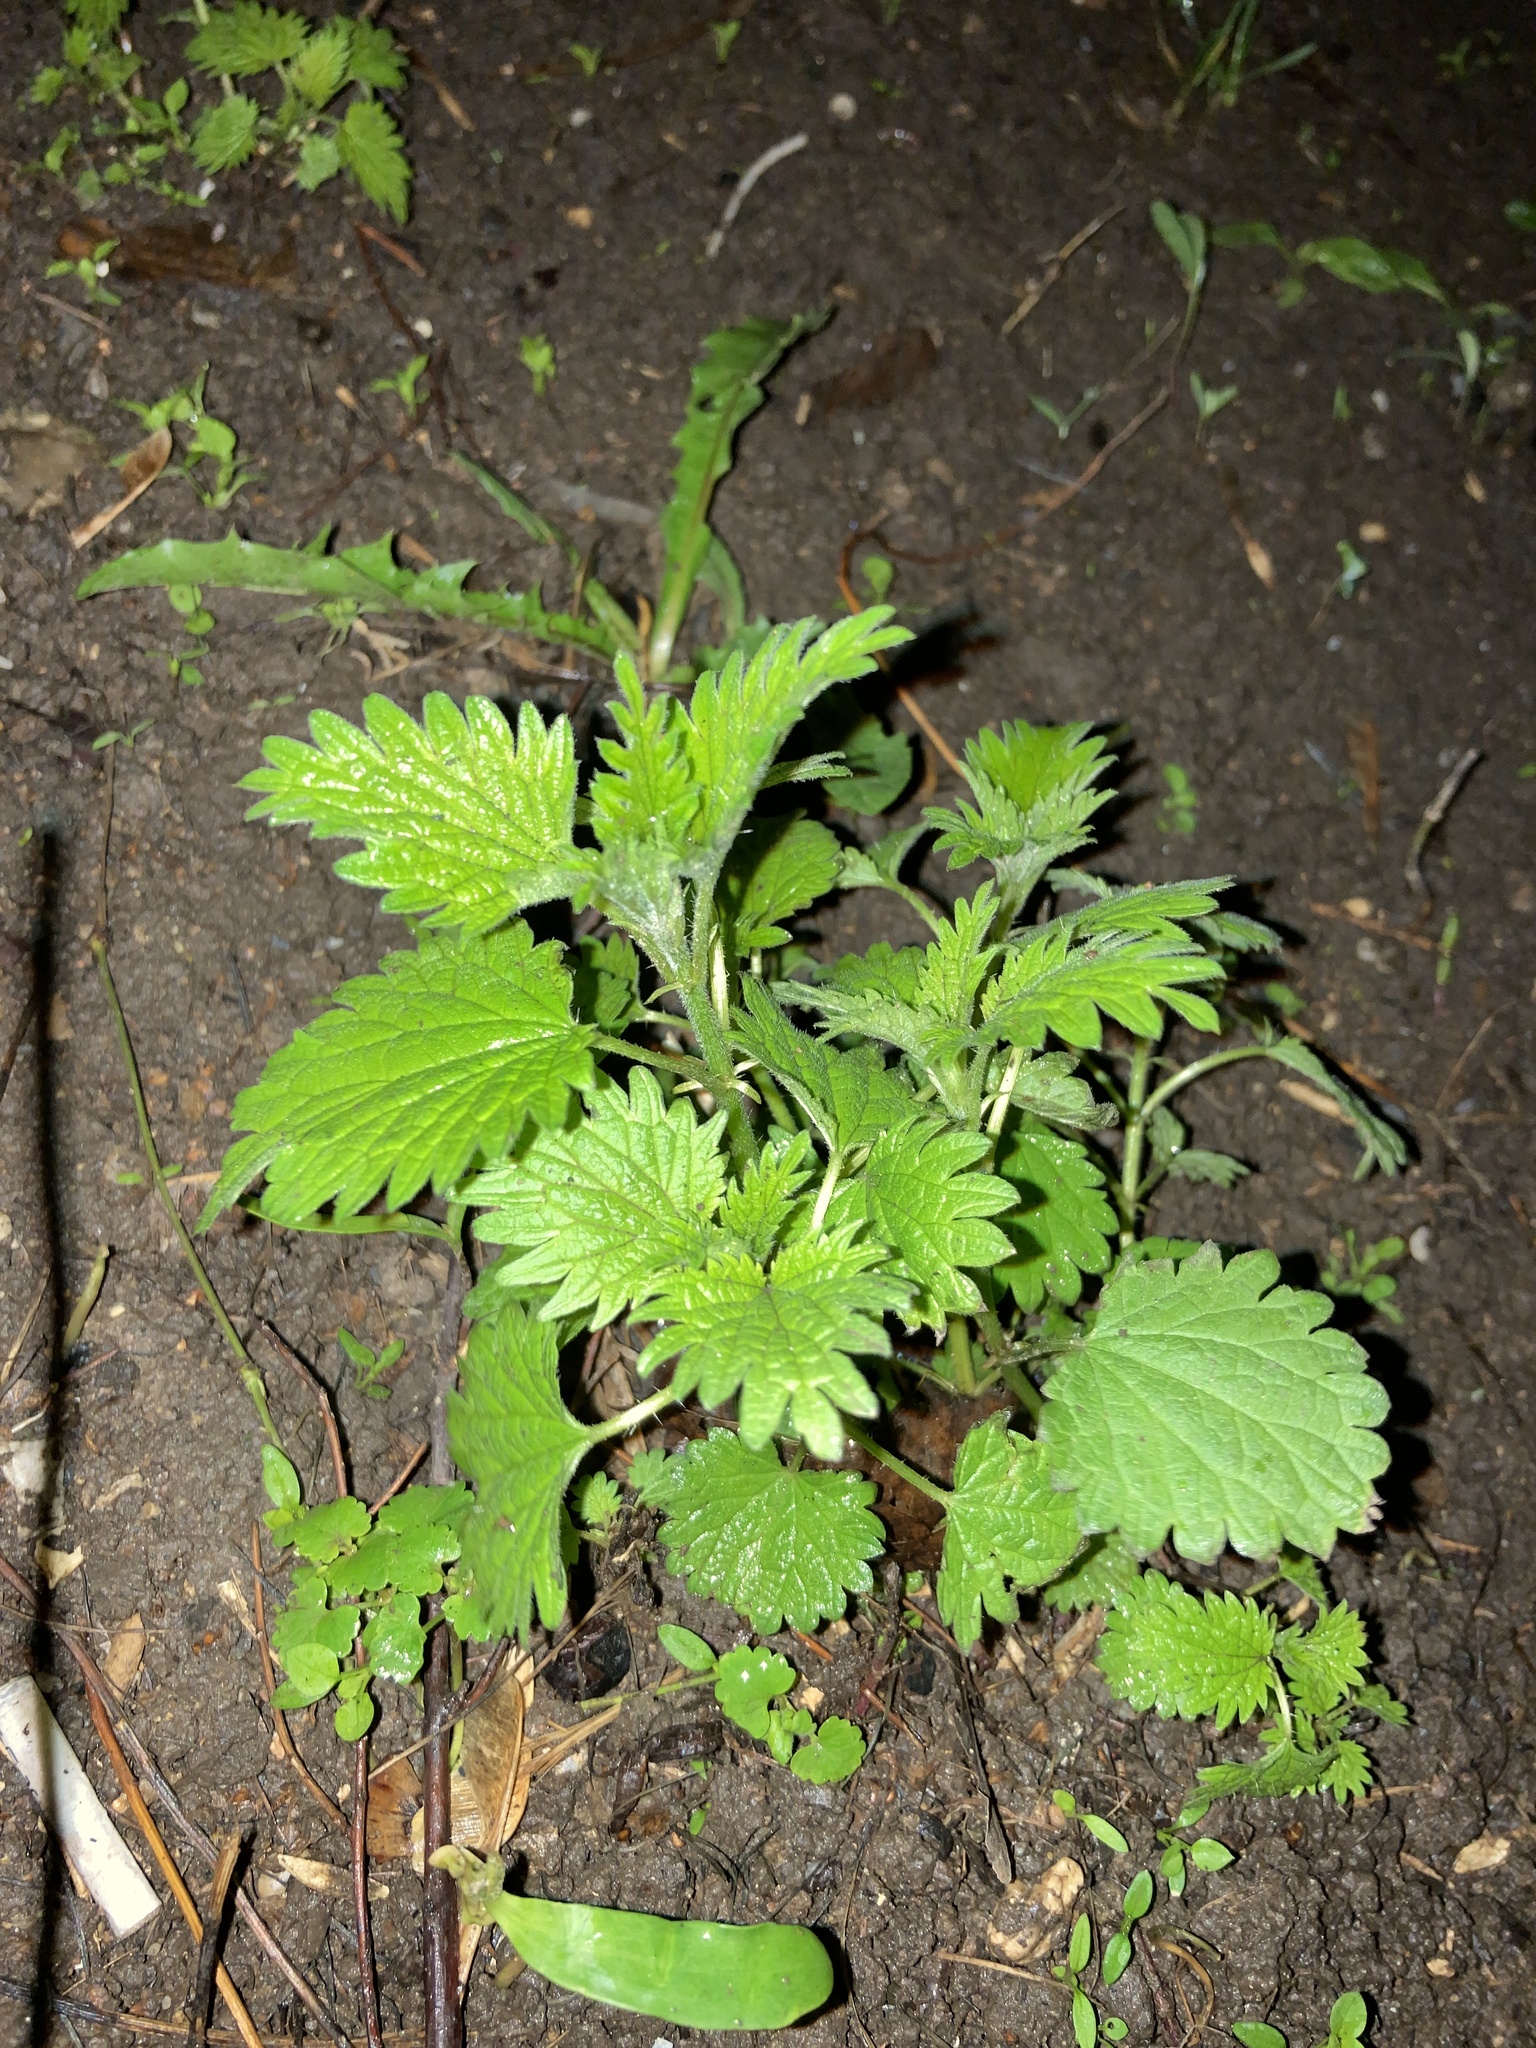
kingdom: Plantae
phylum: Tracheophyta
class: Magnoliopsida
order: Rosales
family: Urticaceae
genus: Urtica
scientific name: Urtica dioica
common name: Common nettle
